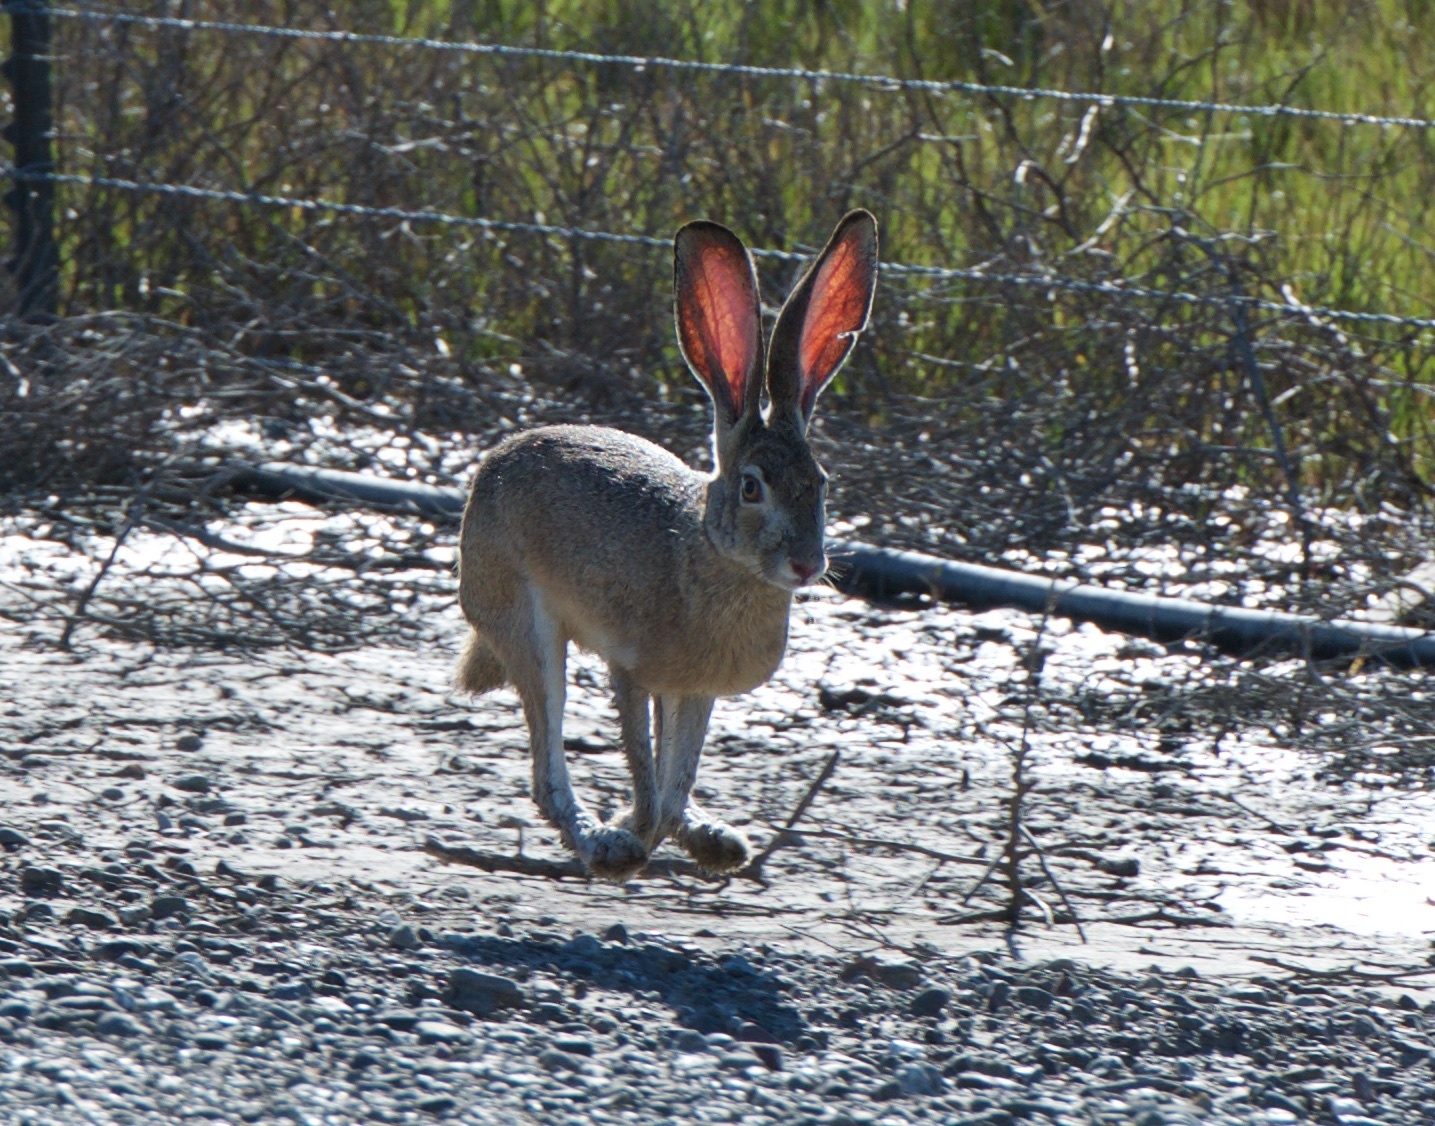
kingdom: Animalia
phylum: Chordata
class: Mammalia
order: Lagomorpha
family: Leporidae
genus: Lepus
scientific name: Lepus californicus
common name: Black-tailed jackrabbit
